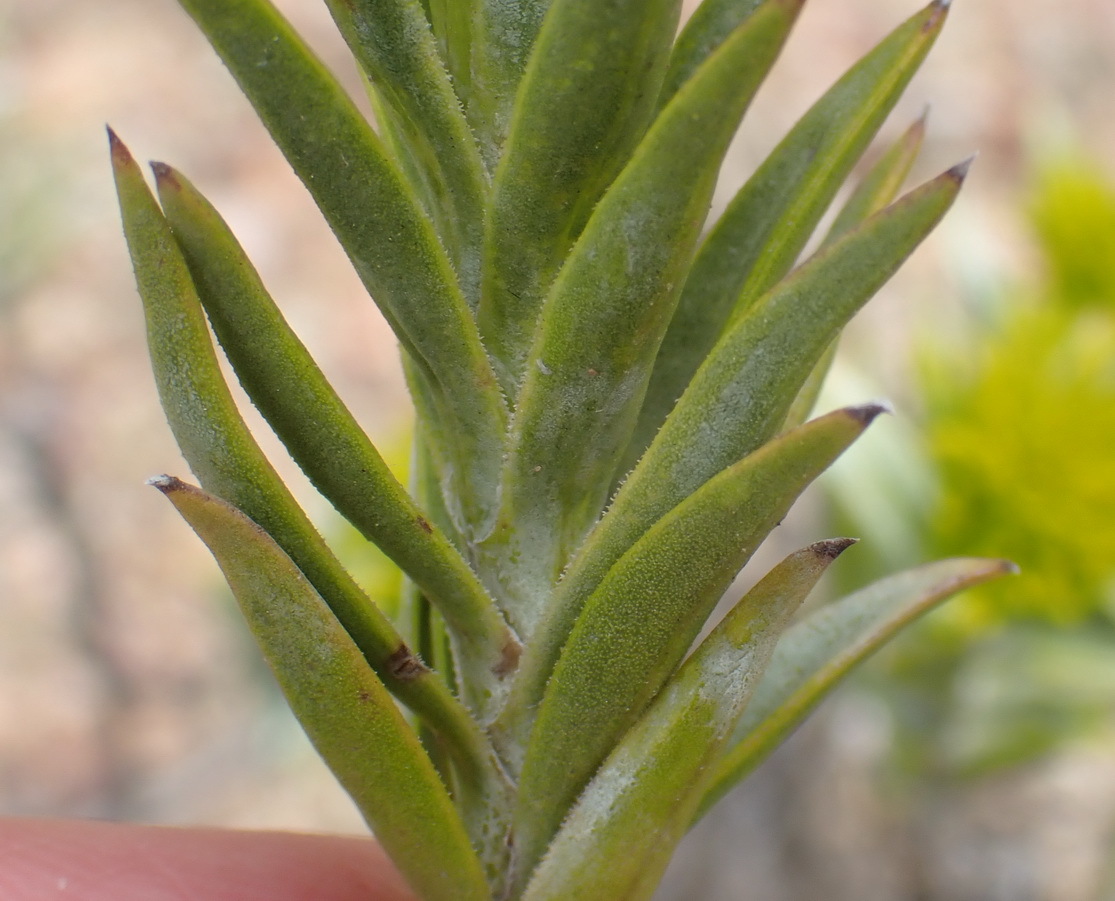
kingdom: Plantae
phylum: Tracheophyta
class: Magnoliopsida
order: Asterales
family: Asteraceae
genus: Pteronia
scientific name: Pteronia fasciculata
